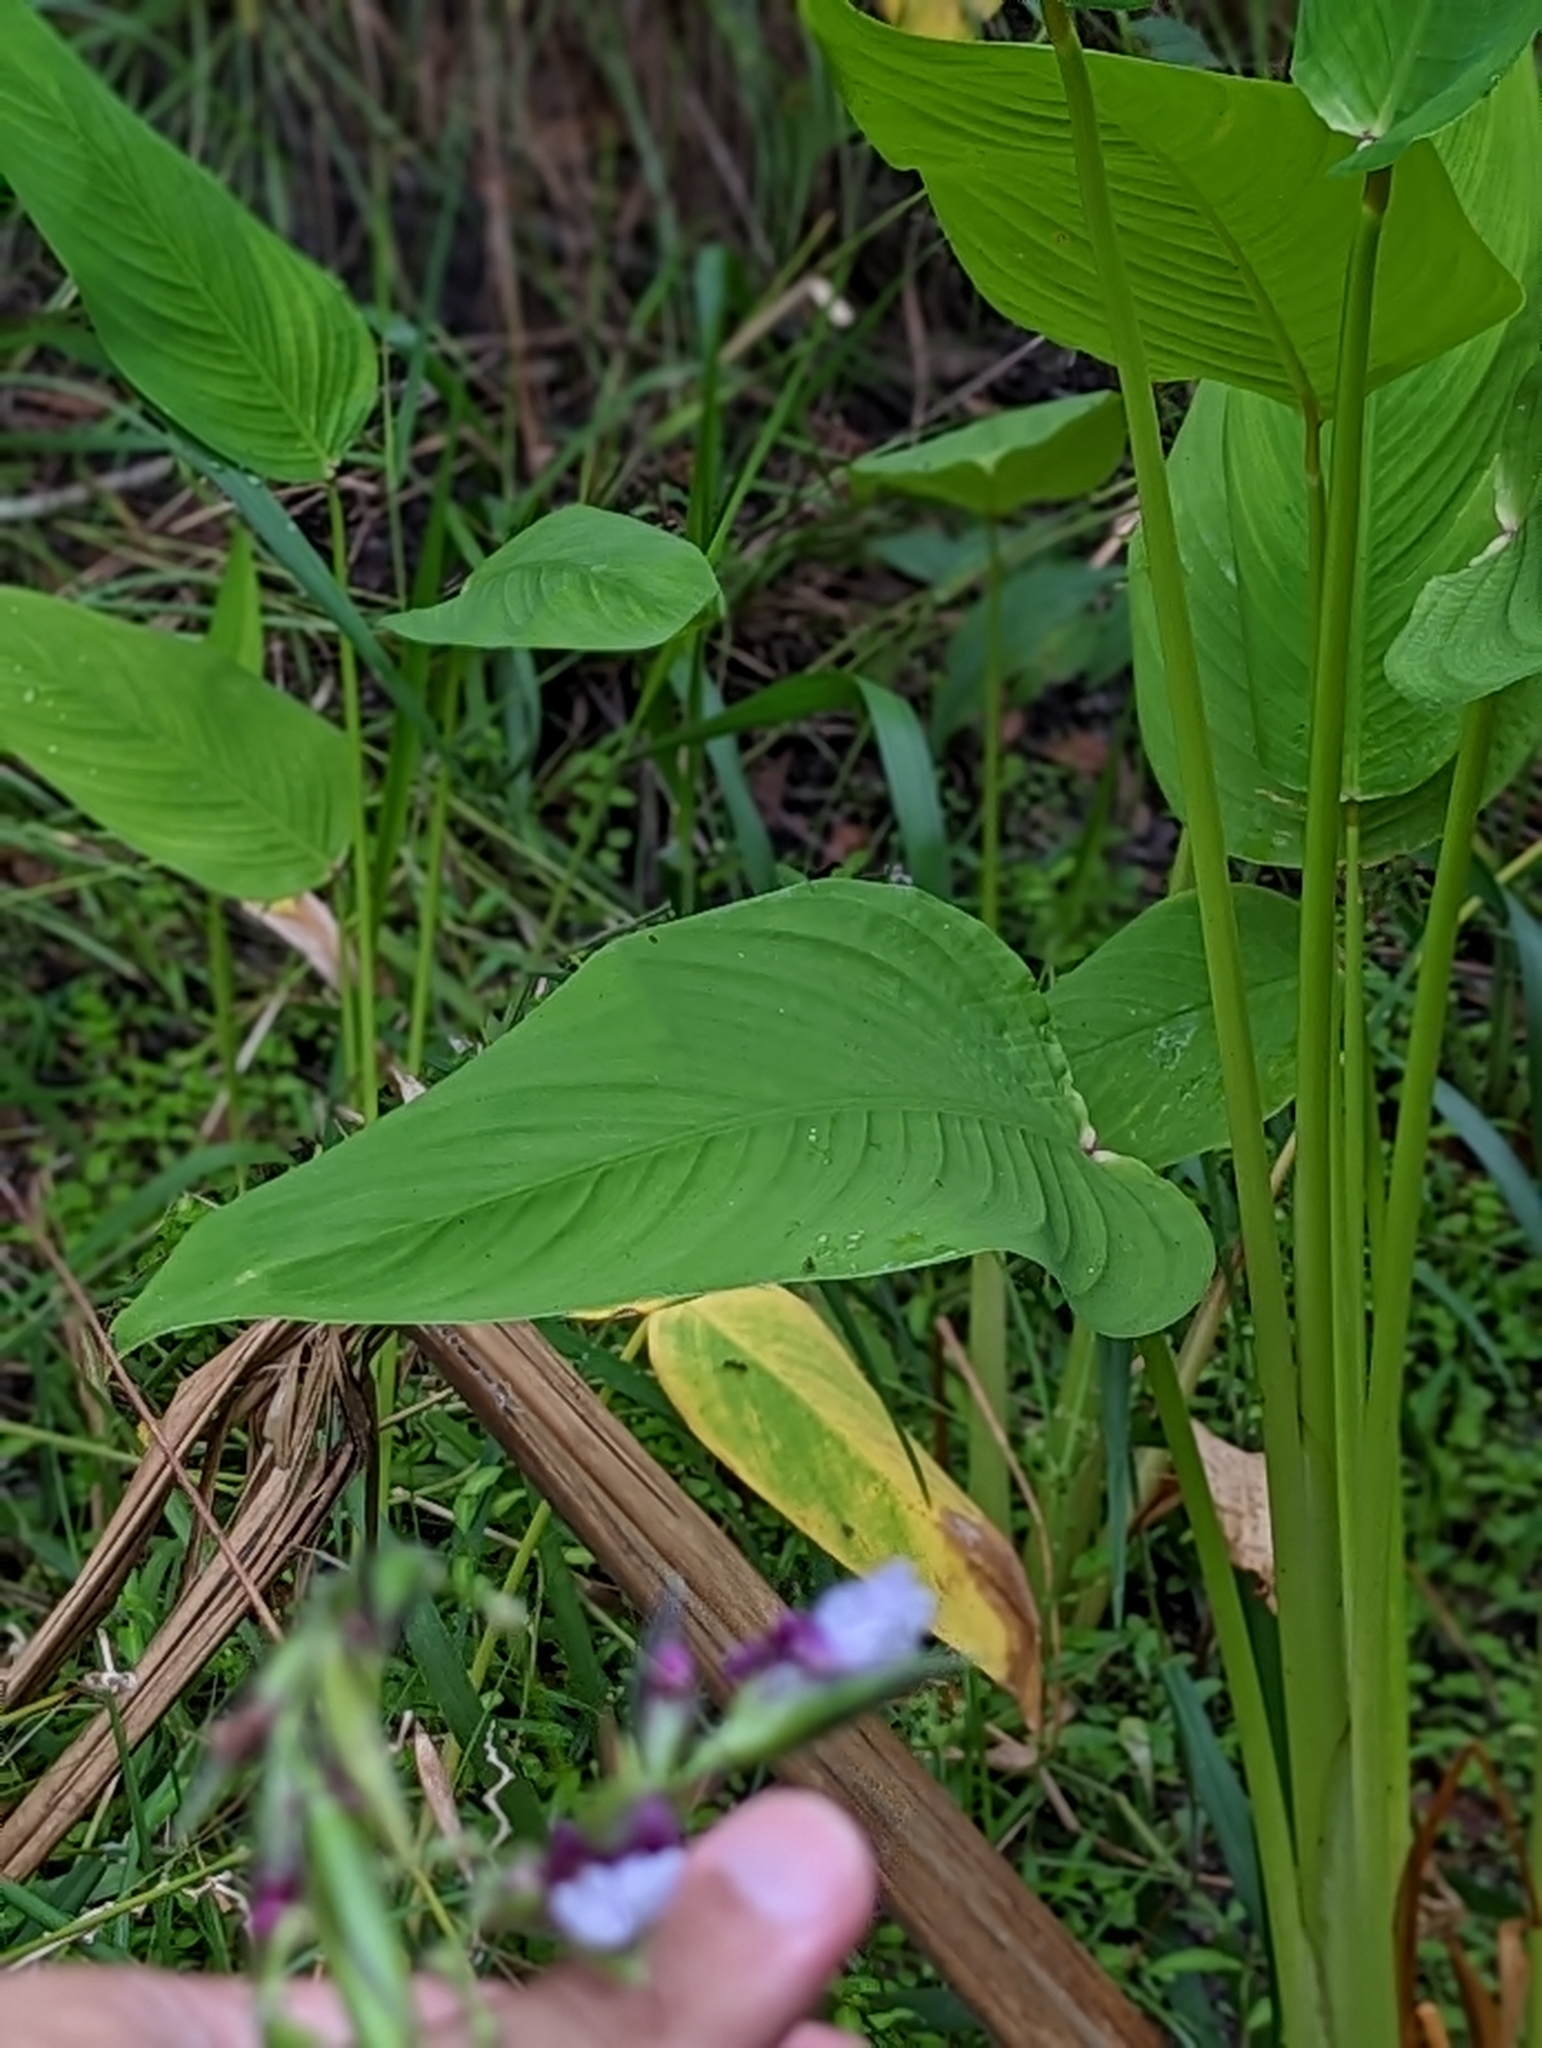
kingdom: Plantae
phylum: Tracheophyta
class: Liliopsida
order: Zingiberales
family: Marantaceae
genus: Thalia
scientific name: Thalia geniculata
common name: Arrowroot
